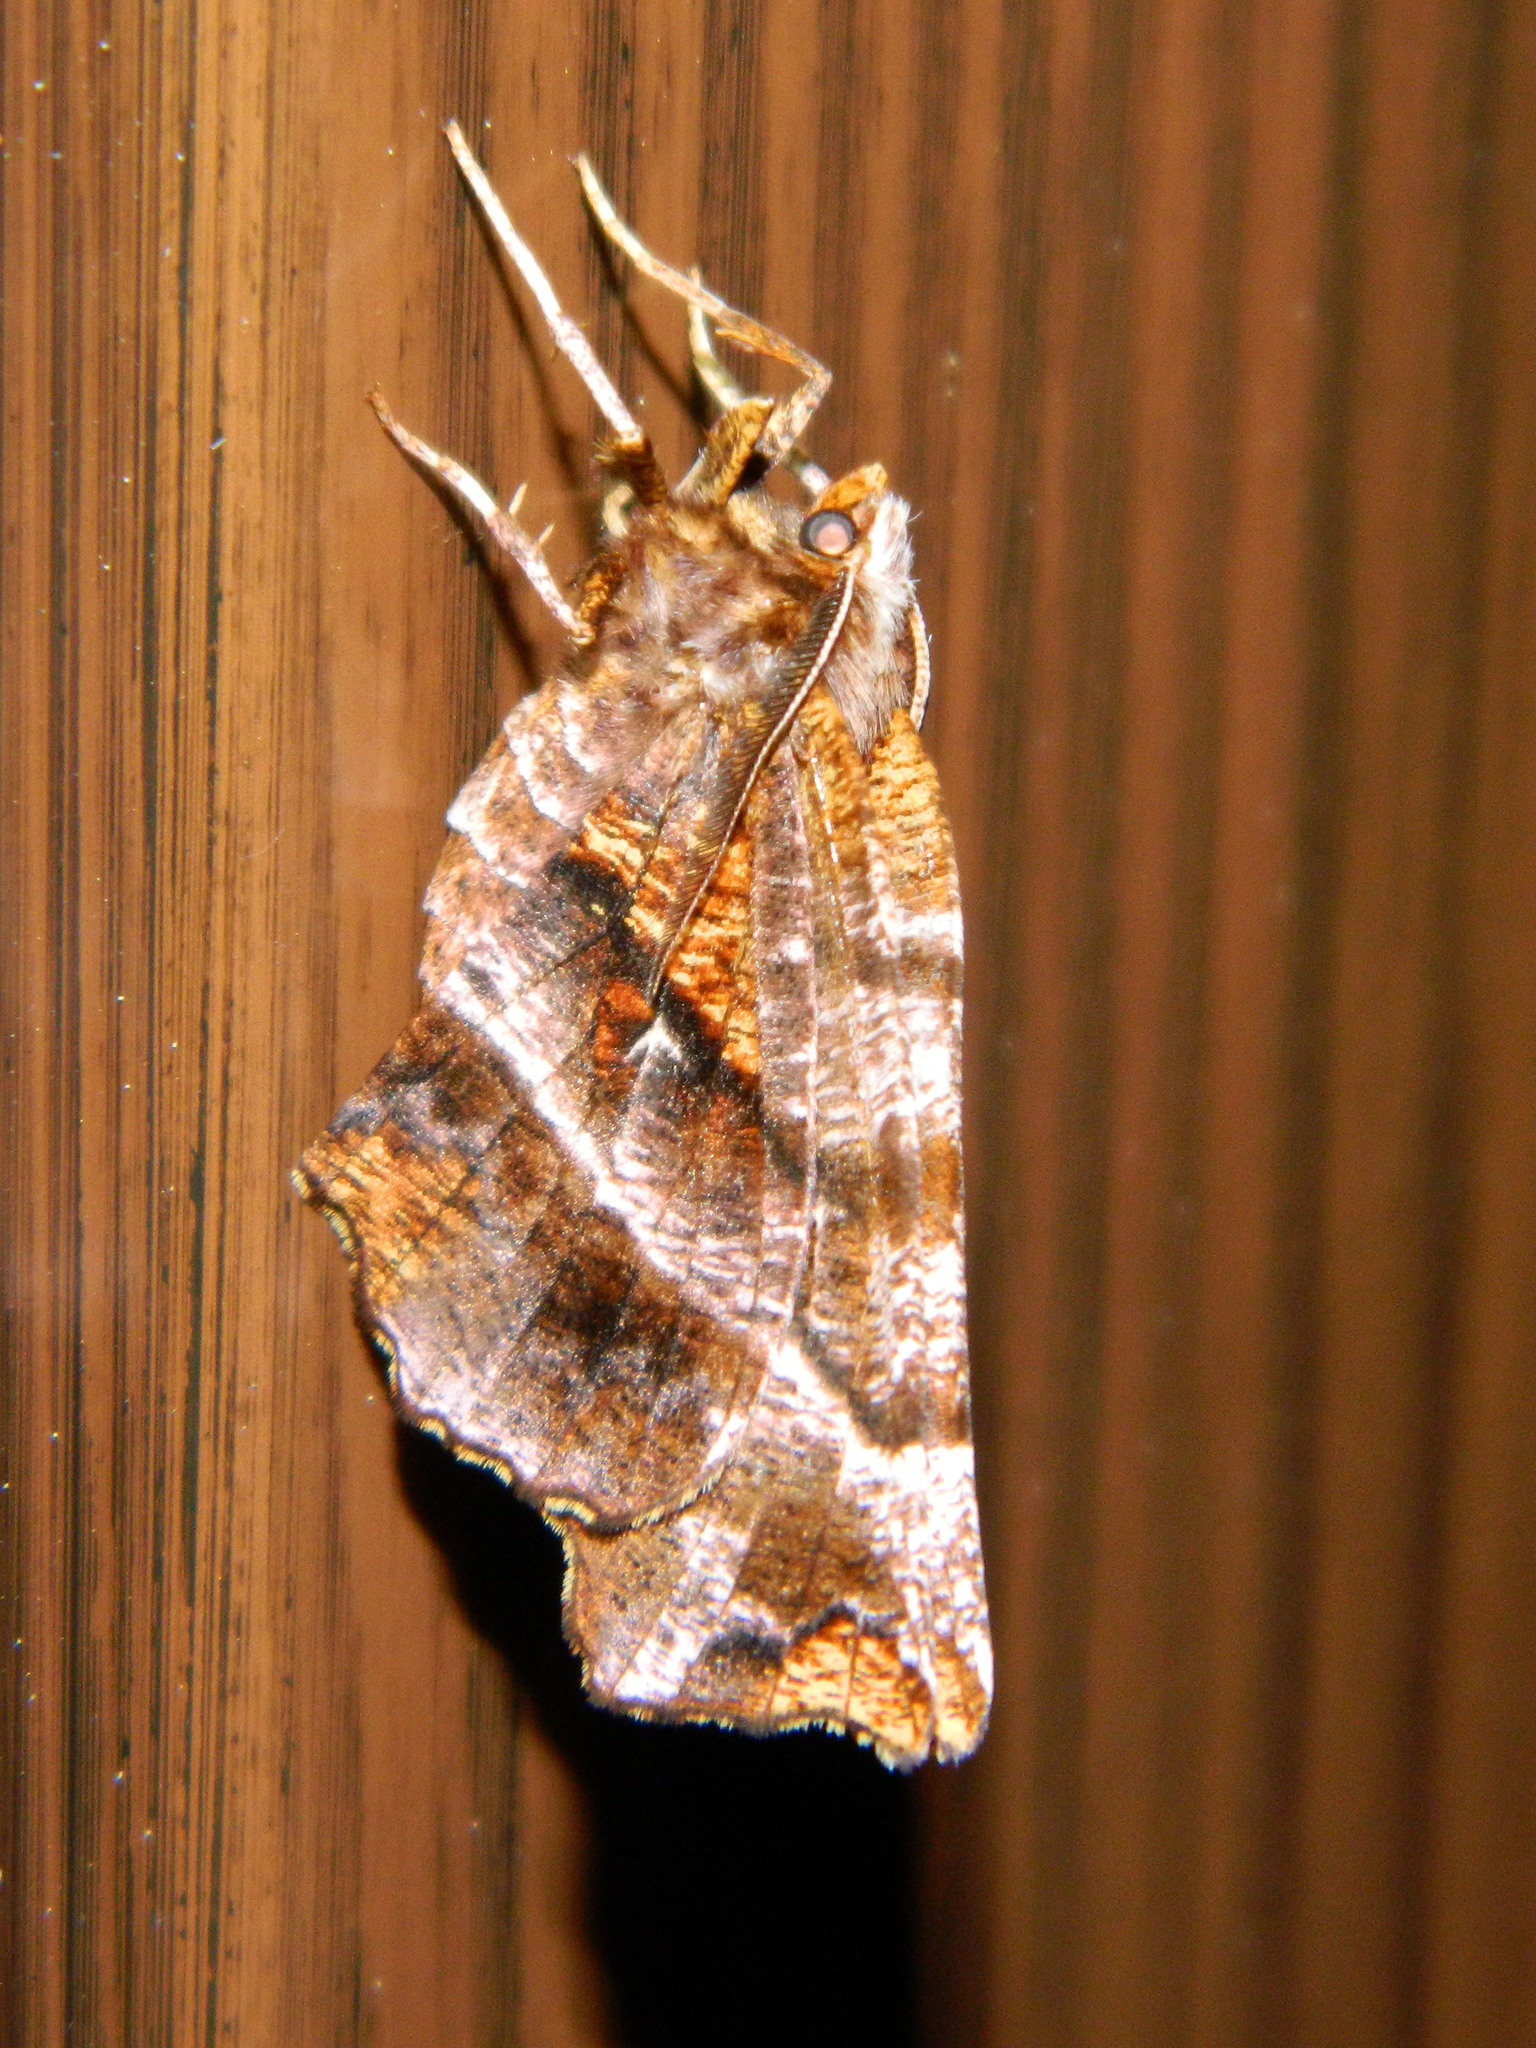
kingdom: Animalia
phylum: Arthropoda
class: Insecta
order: Lepidoptera
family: Geometridae
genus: Selenia
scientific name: Selenia alciphearia
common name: Brown-tipped thorn
